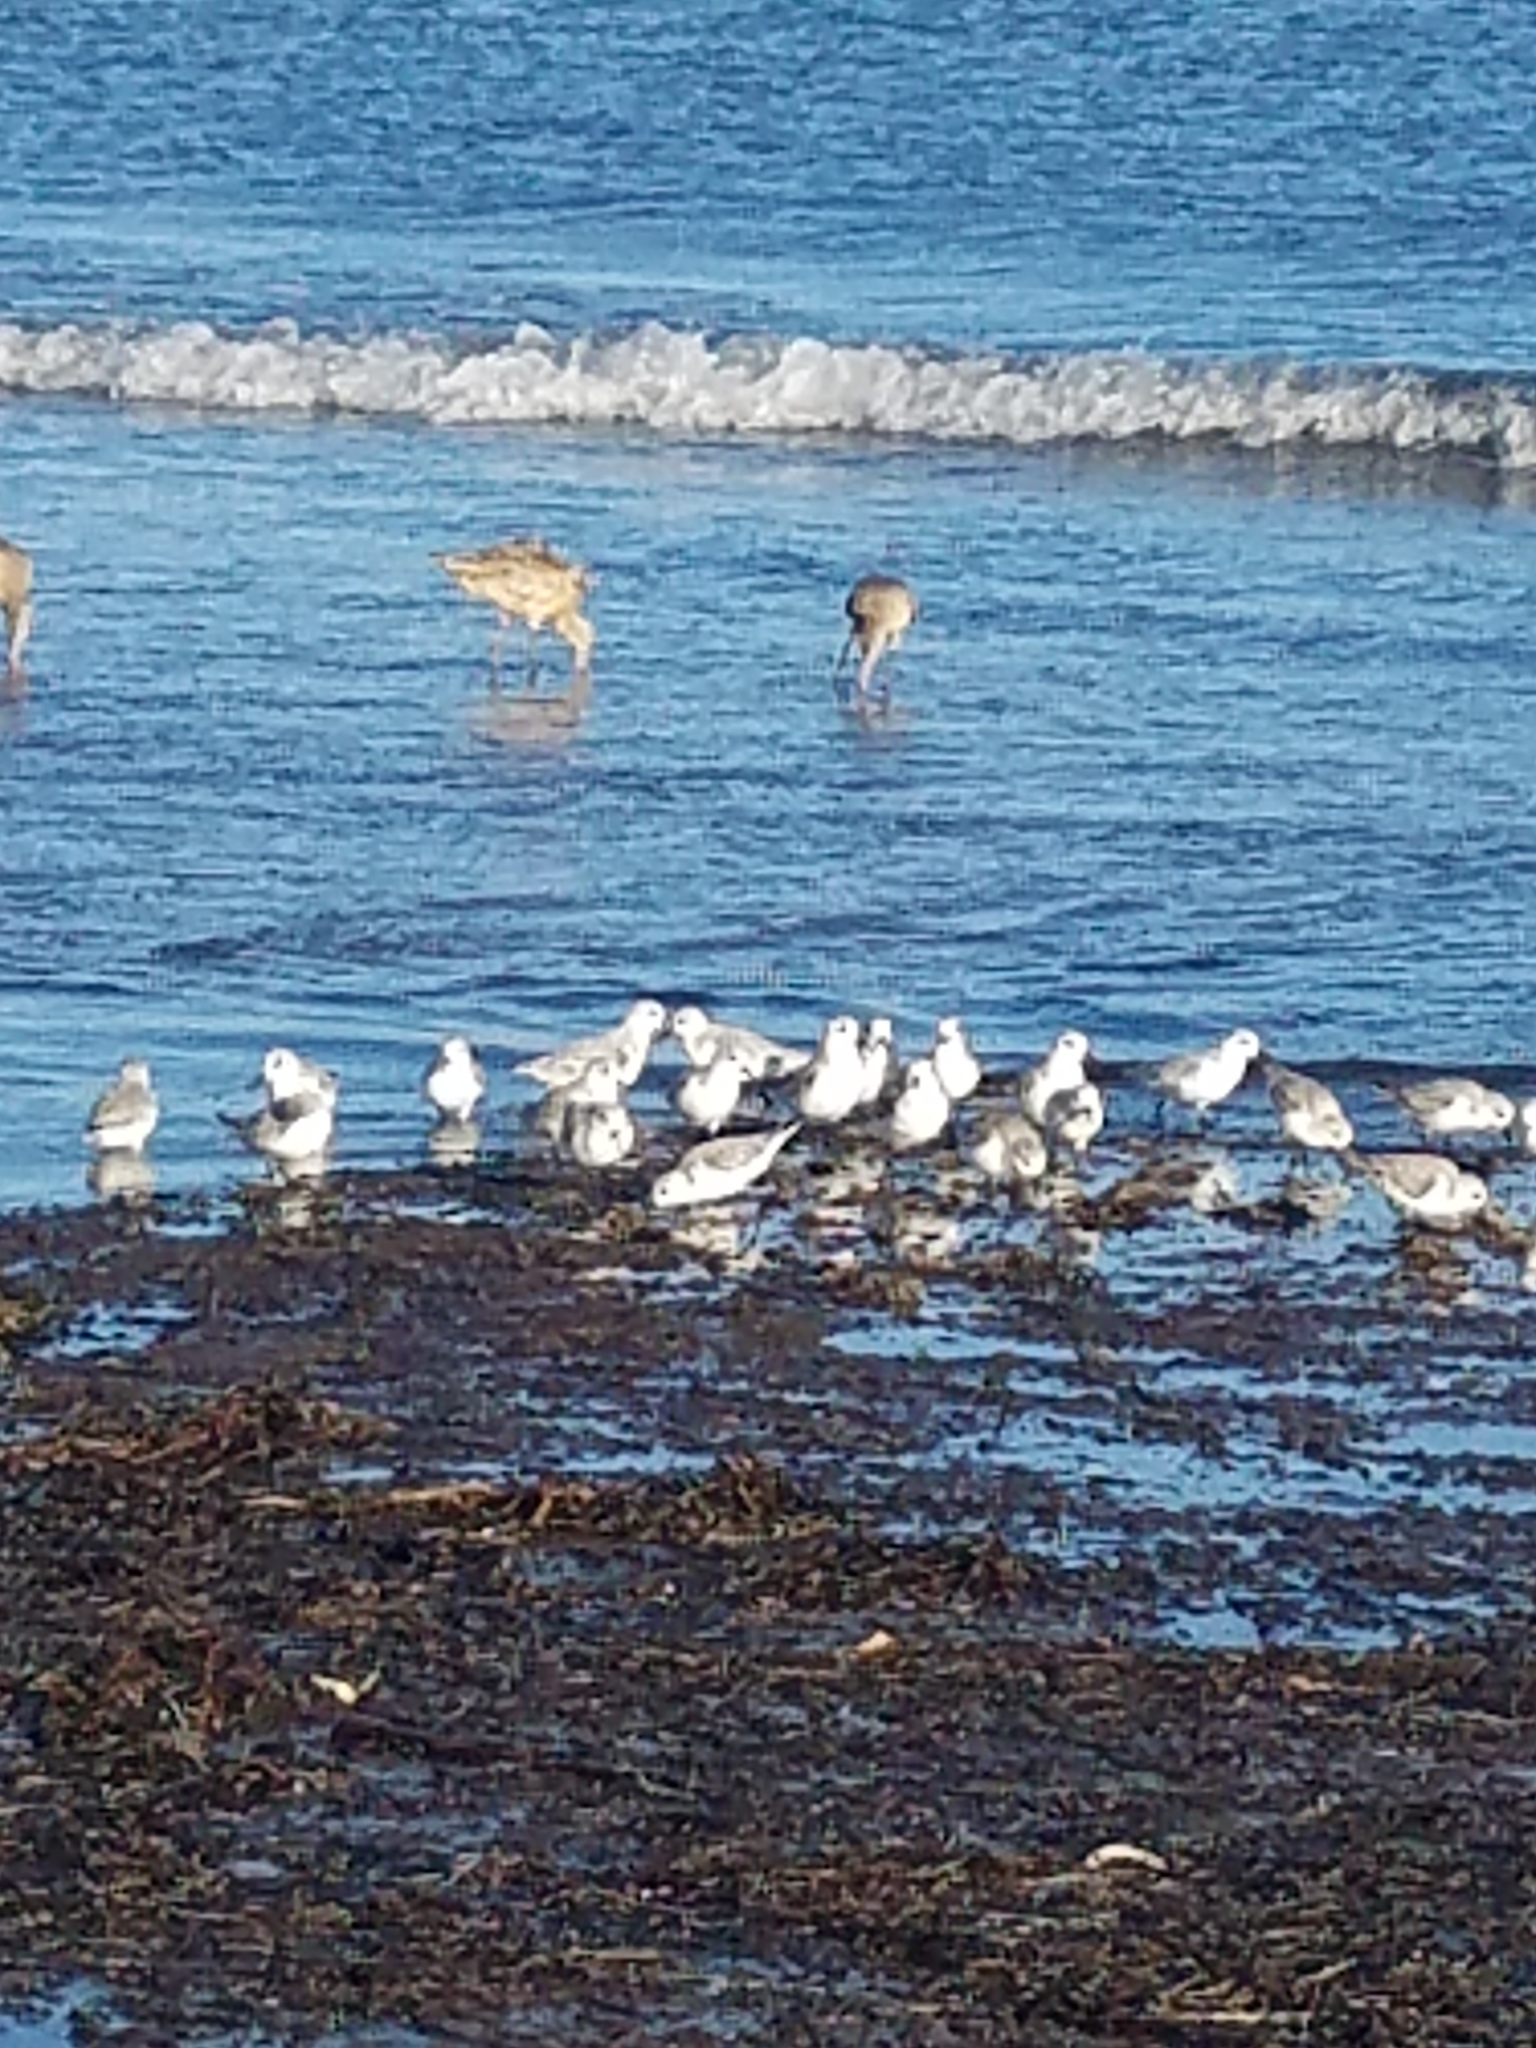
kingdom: Animalia
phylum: Chordata
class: Aves
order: Charadriiformes
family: Scolopacidae
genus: Calidris
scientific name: Calidris alba
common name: Sanderling
